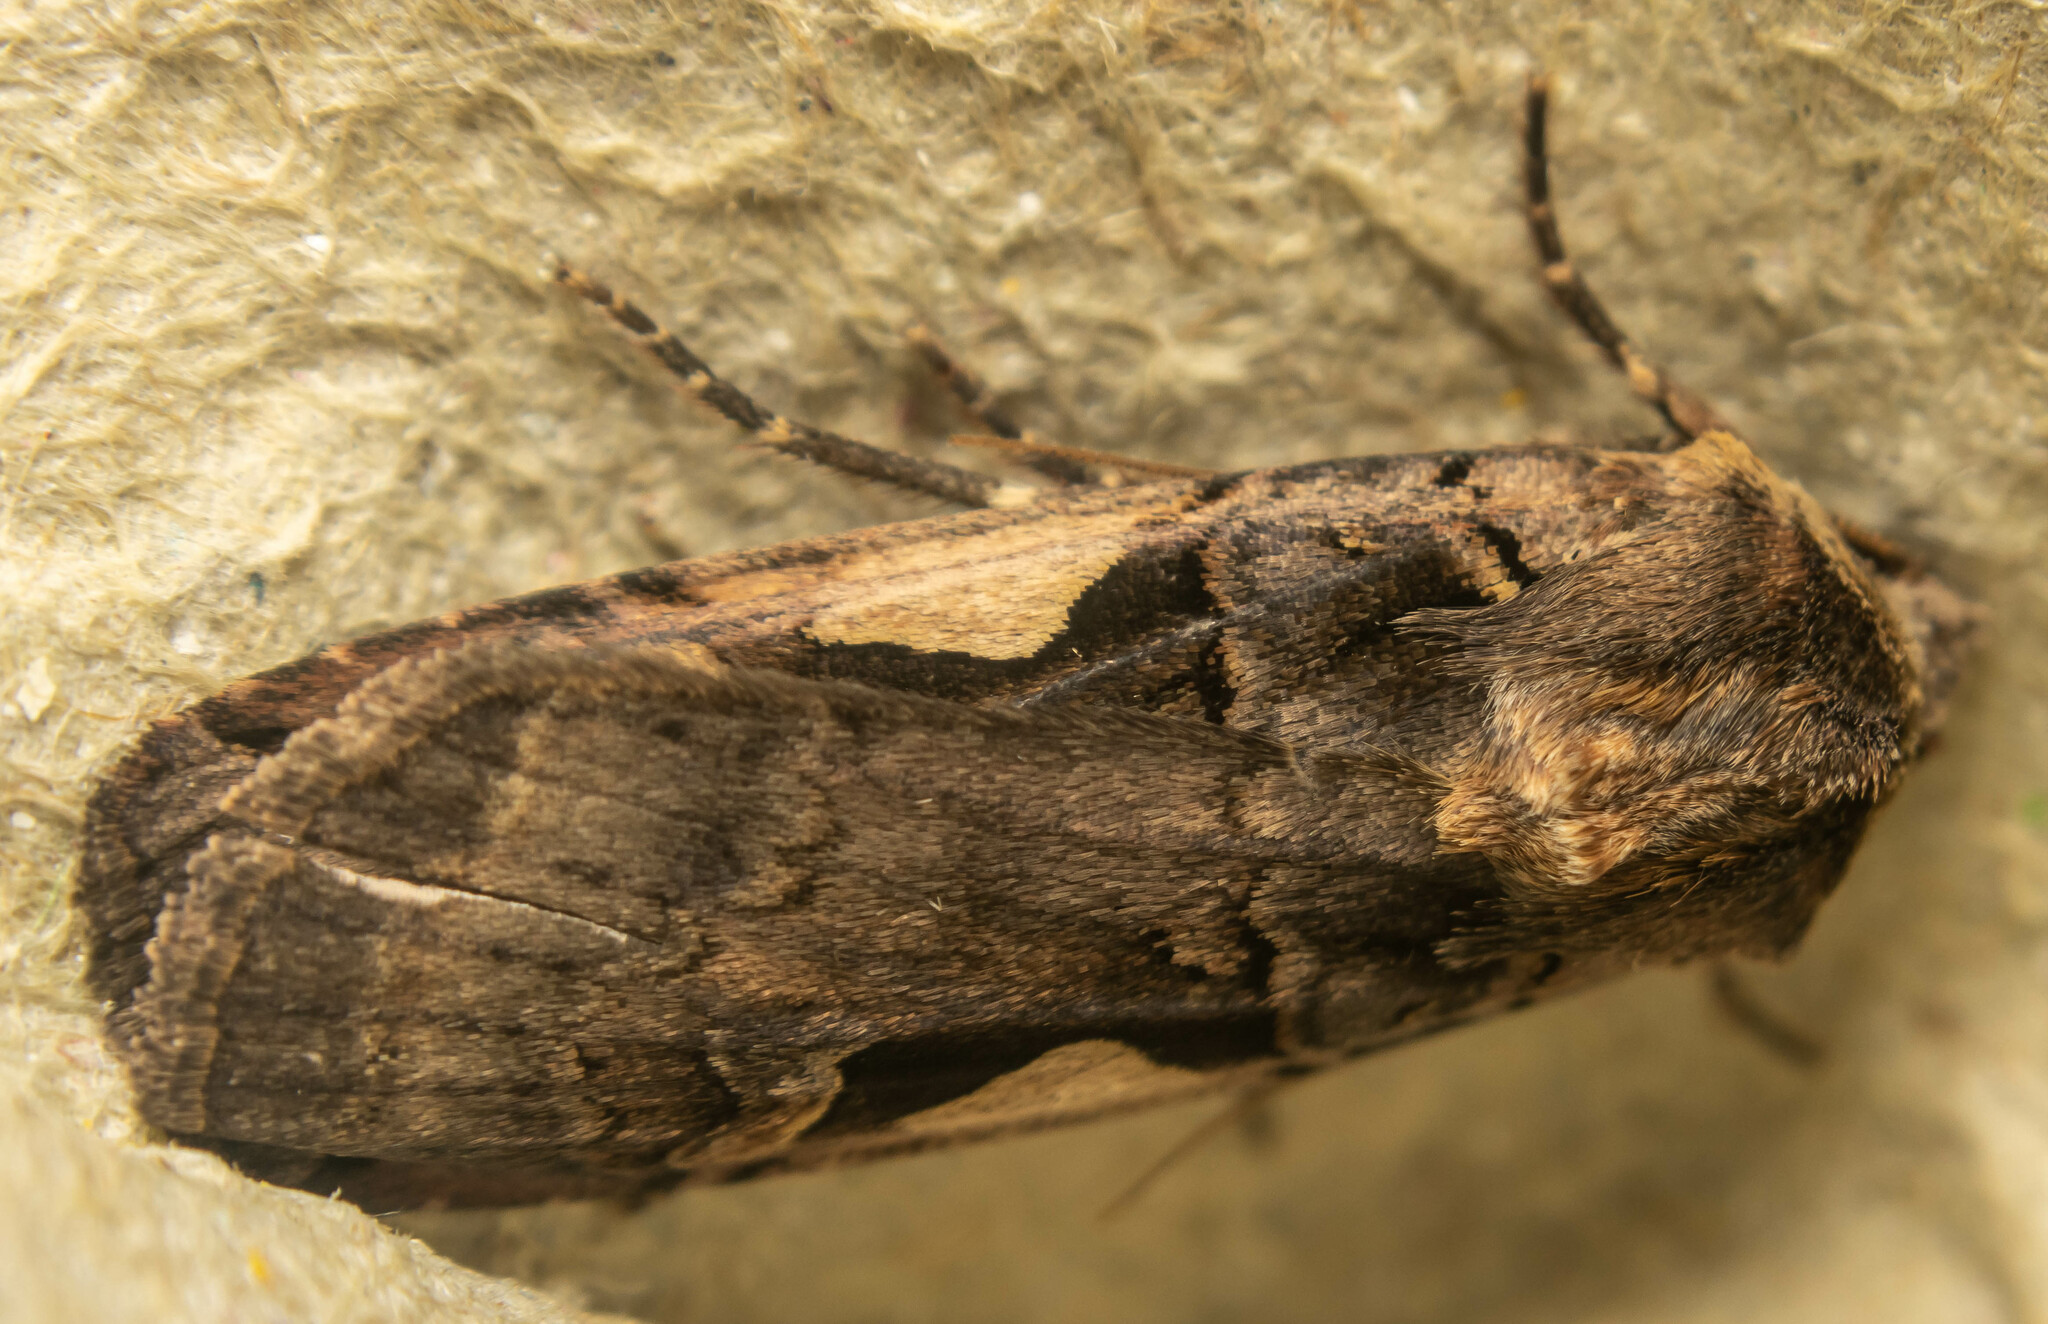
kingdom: Animalia
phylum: Arthropoda
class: Insecta
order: Lepidoptera
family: Noctuidae
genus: Xestia
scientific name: Xestia c-nigrum
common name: Setaceous hebrew character
